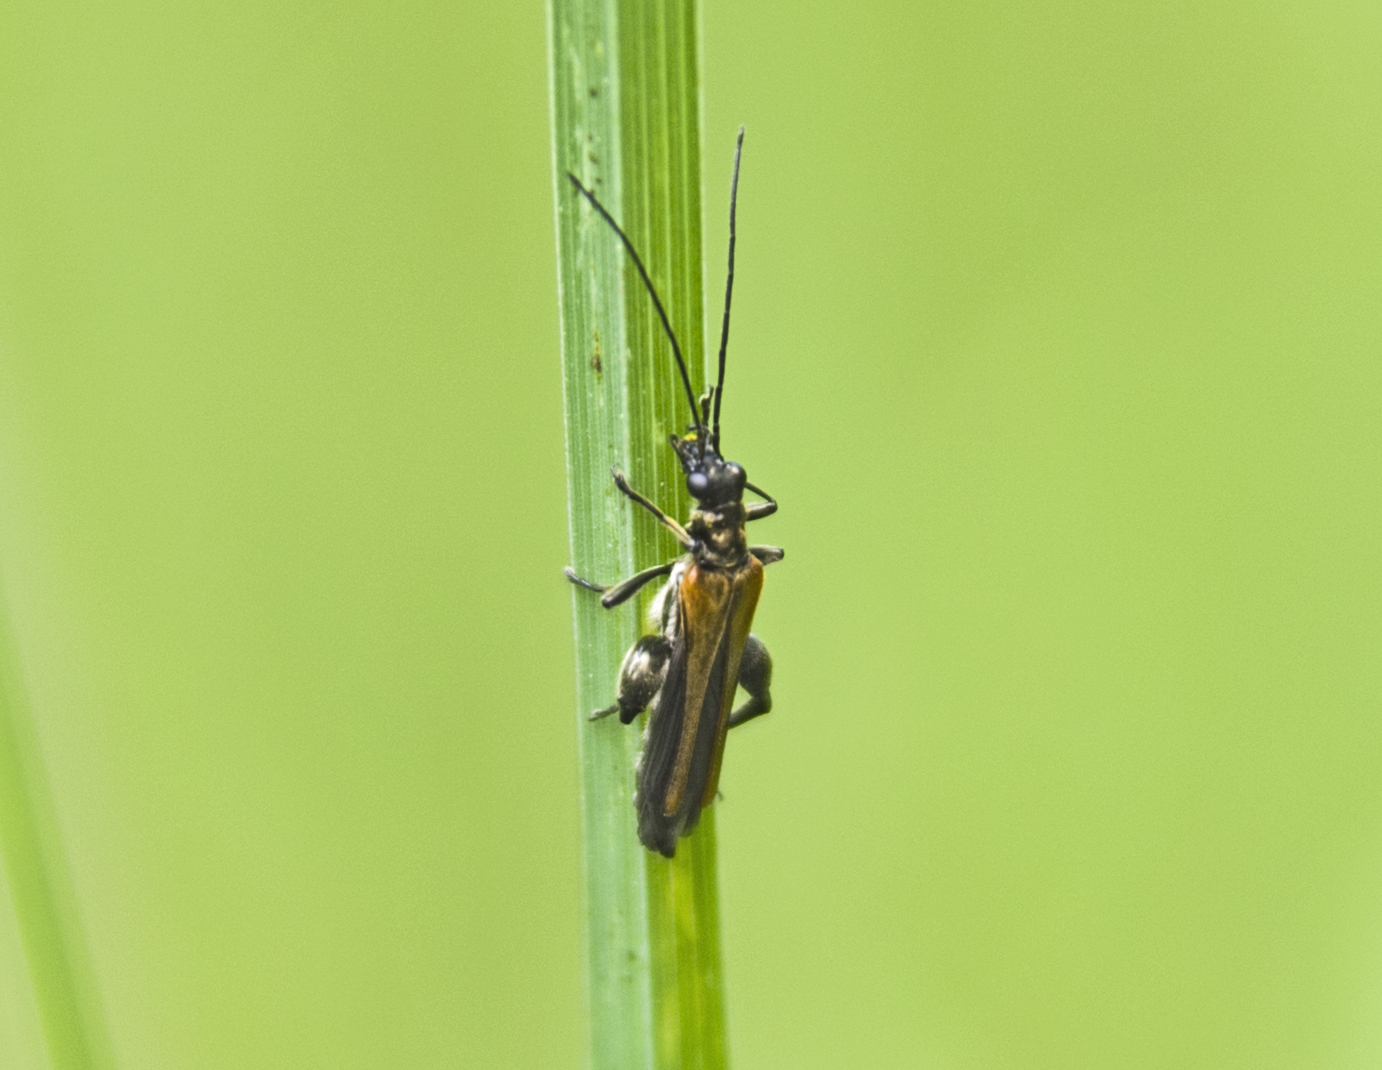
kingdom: Animalia
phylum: Arthropoda
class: Insecta
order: Coleoptera
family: Oedemeridae
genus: Oedemera
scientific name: Oedemera femorata
